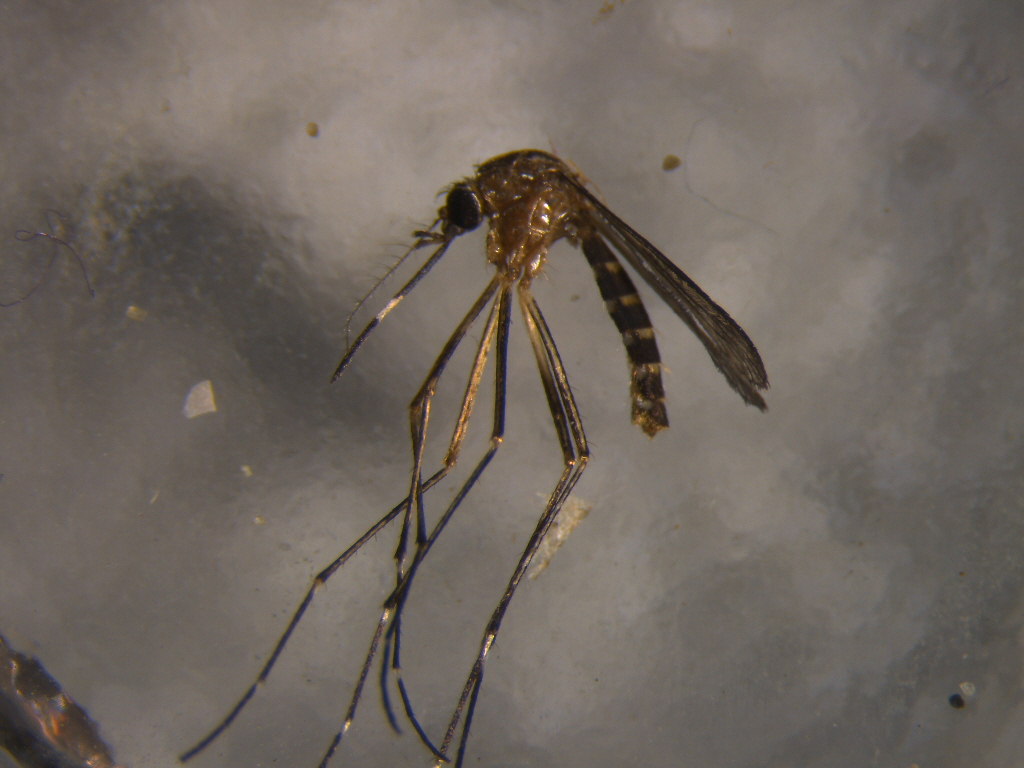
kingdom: Animalia
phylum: Arthropoda
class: Insecta
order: Diptera
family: Culicidae
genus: Aedes
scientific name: Aedes notoscriptus
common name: Australian backyard mosquito
